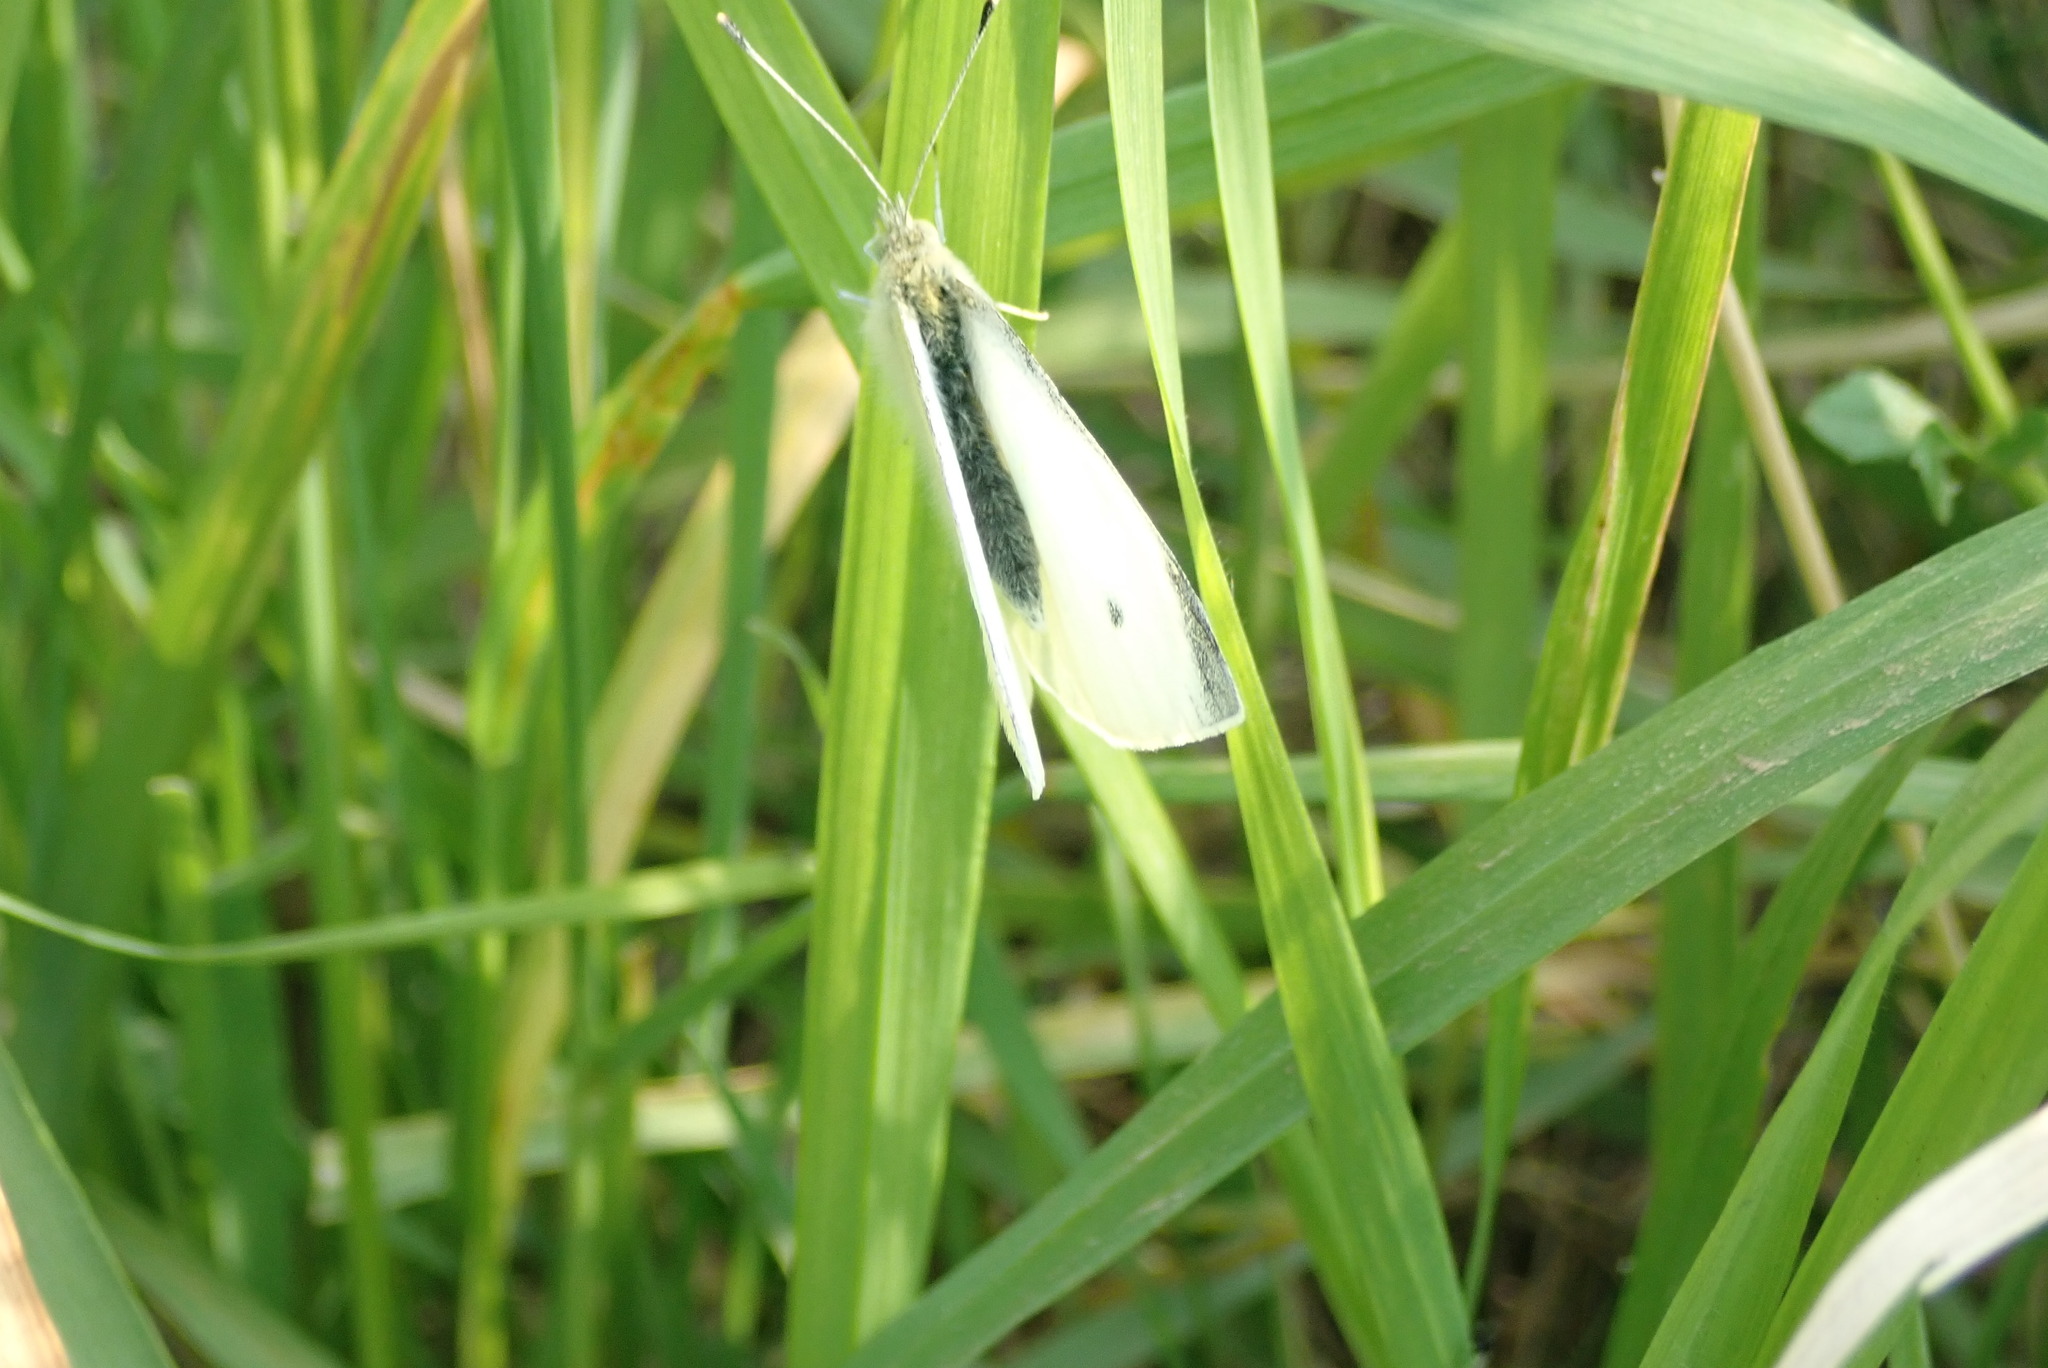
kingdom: Animalia
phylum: Arthropoda
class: Insecta
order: Lepidoptera
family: Pieridae
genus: Pieris
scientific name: Pieris rapae
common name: Small white
